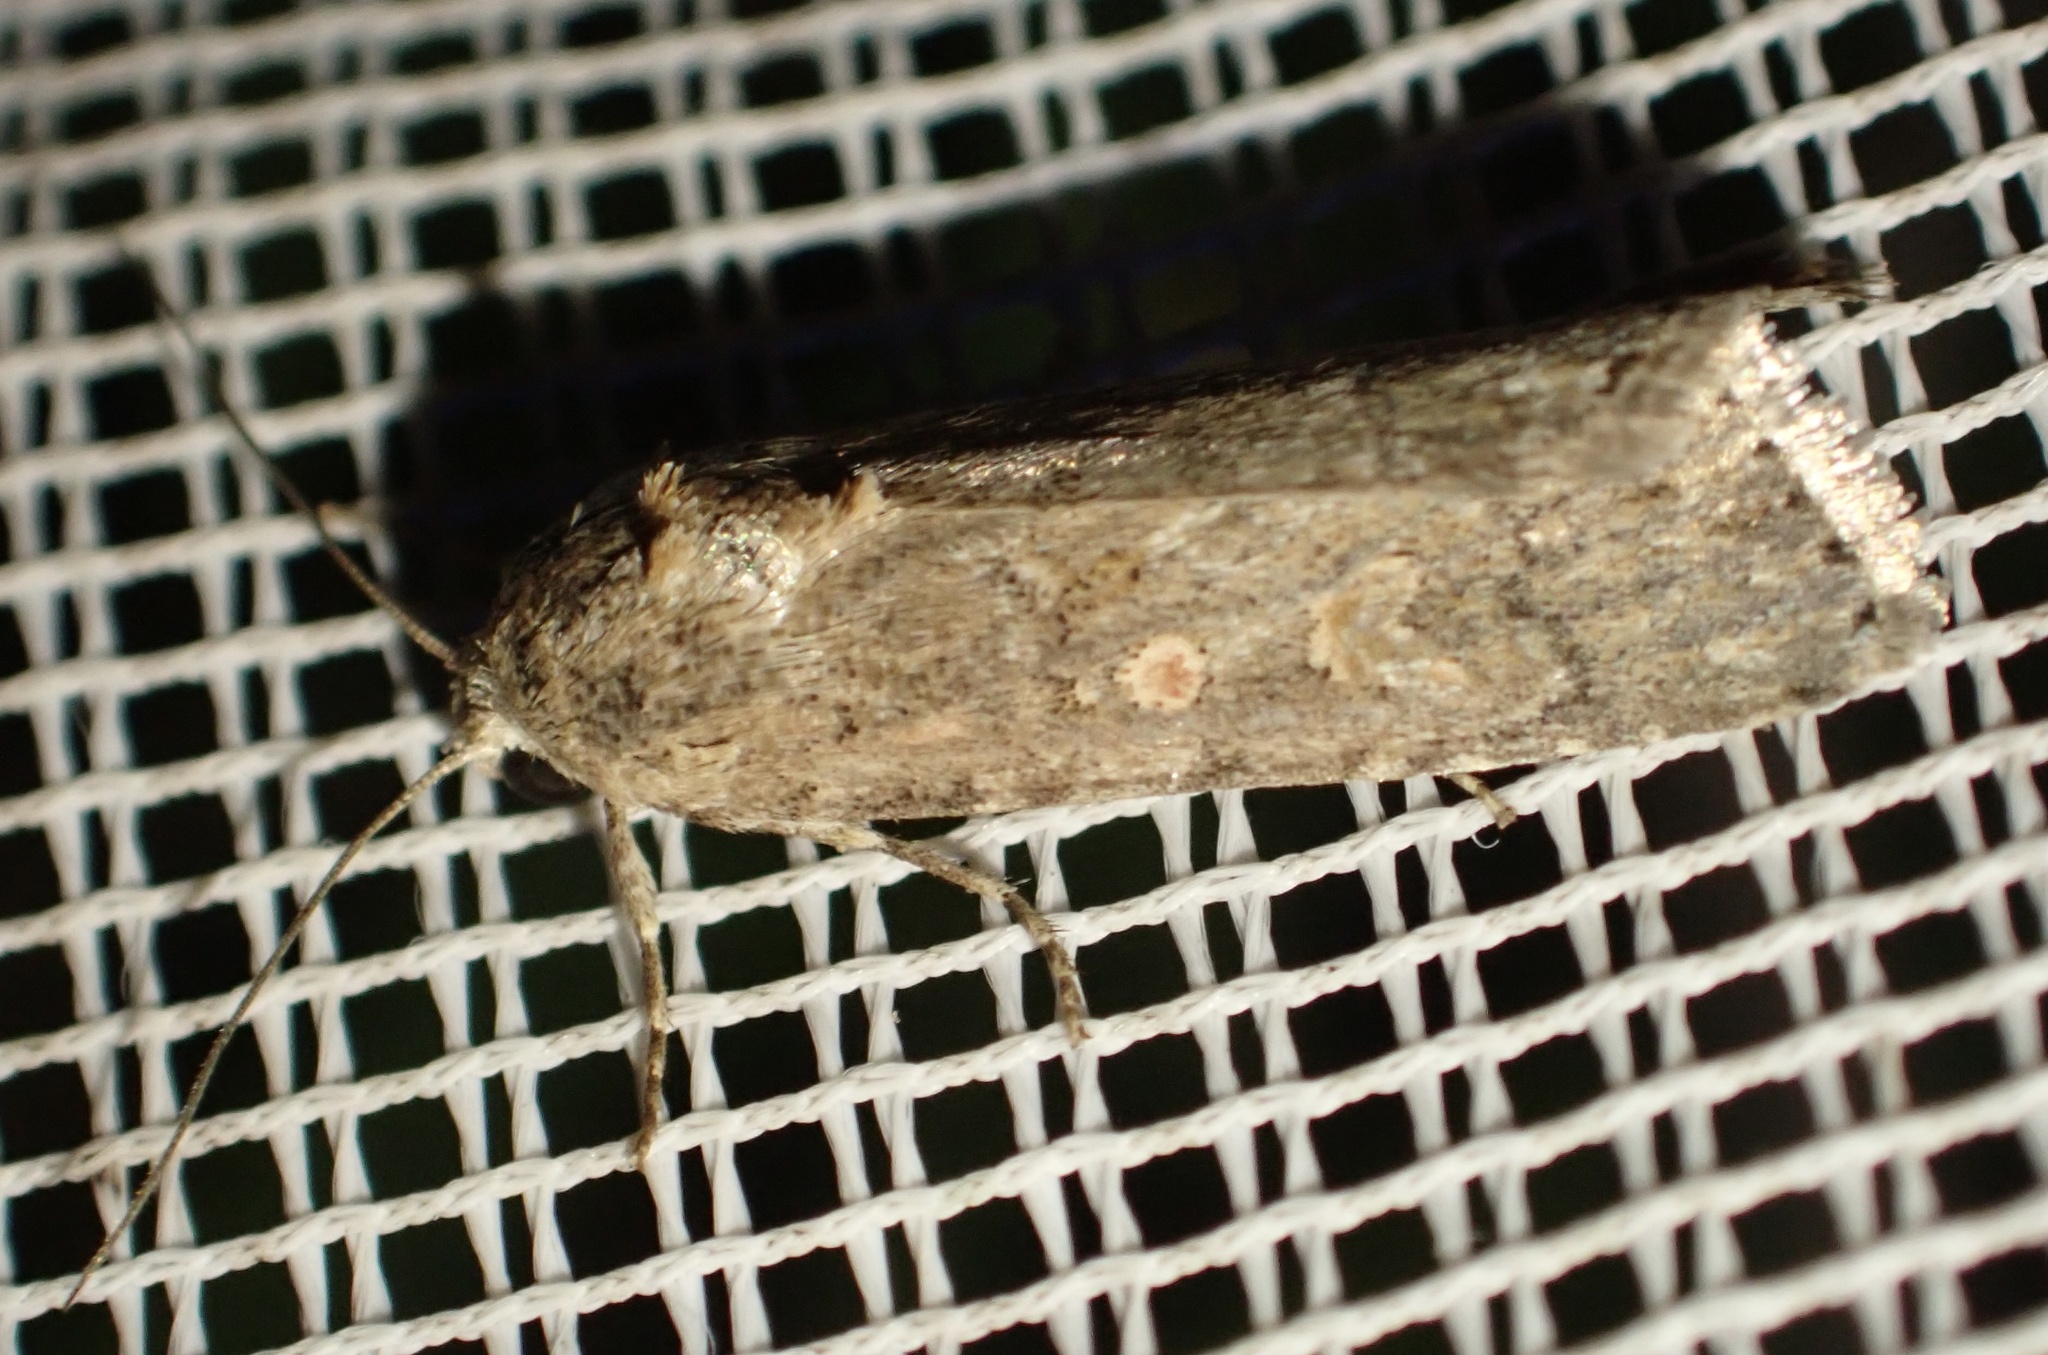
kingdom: Animalia
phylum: Arthropoda
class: Insecta
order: Lepidoptera
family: Noctuidae
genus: Spodoptera
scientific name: Spodoptera exigua
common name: Beet armyworm
